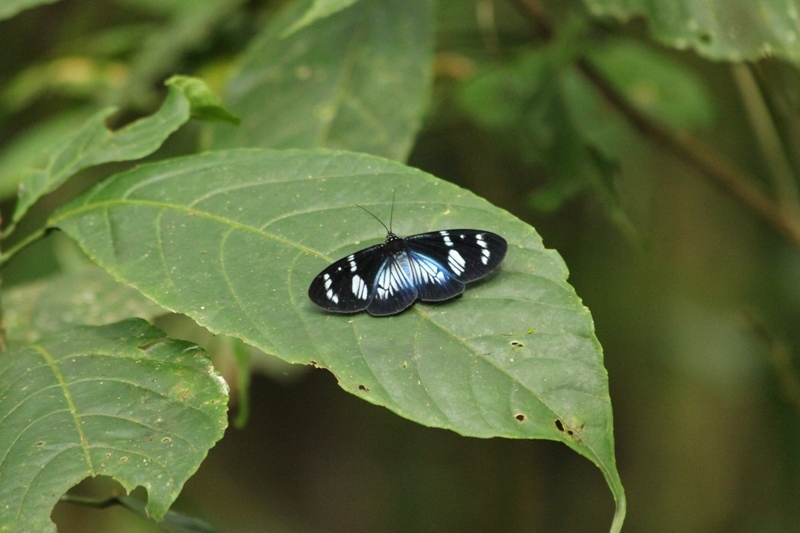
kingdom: Animalia
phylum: Arthropoda
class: Insecta
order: Lepidoptera
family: Erebidae
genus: Hypocrita
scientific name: Hypocrita plagifera
